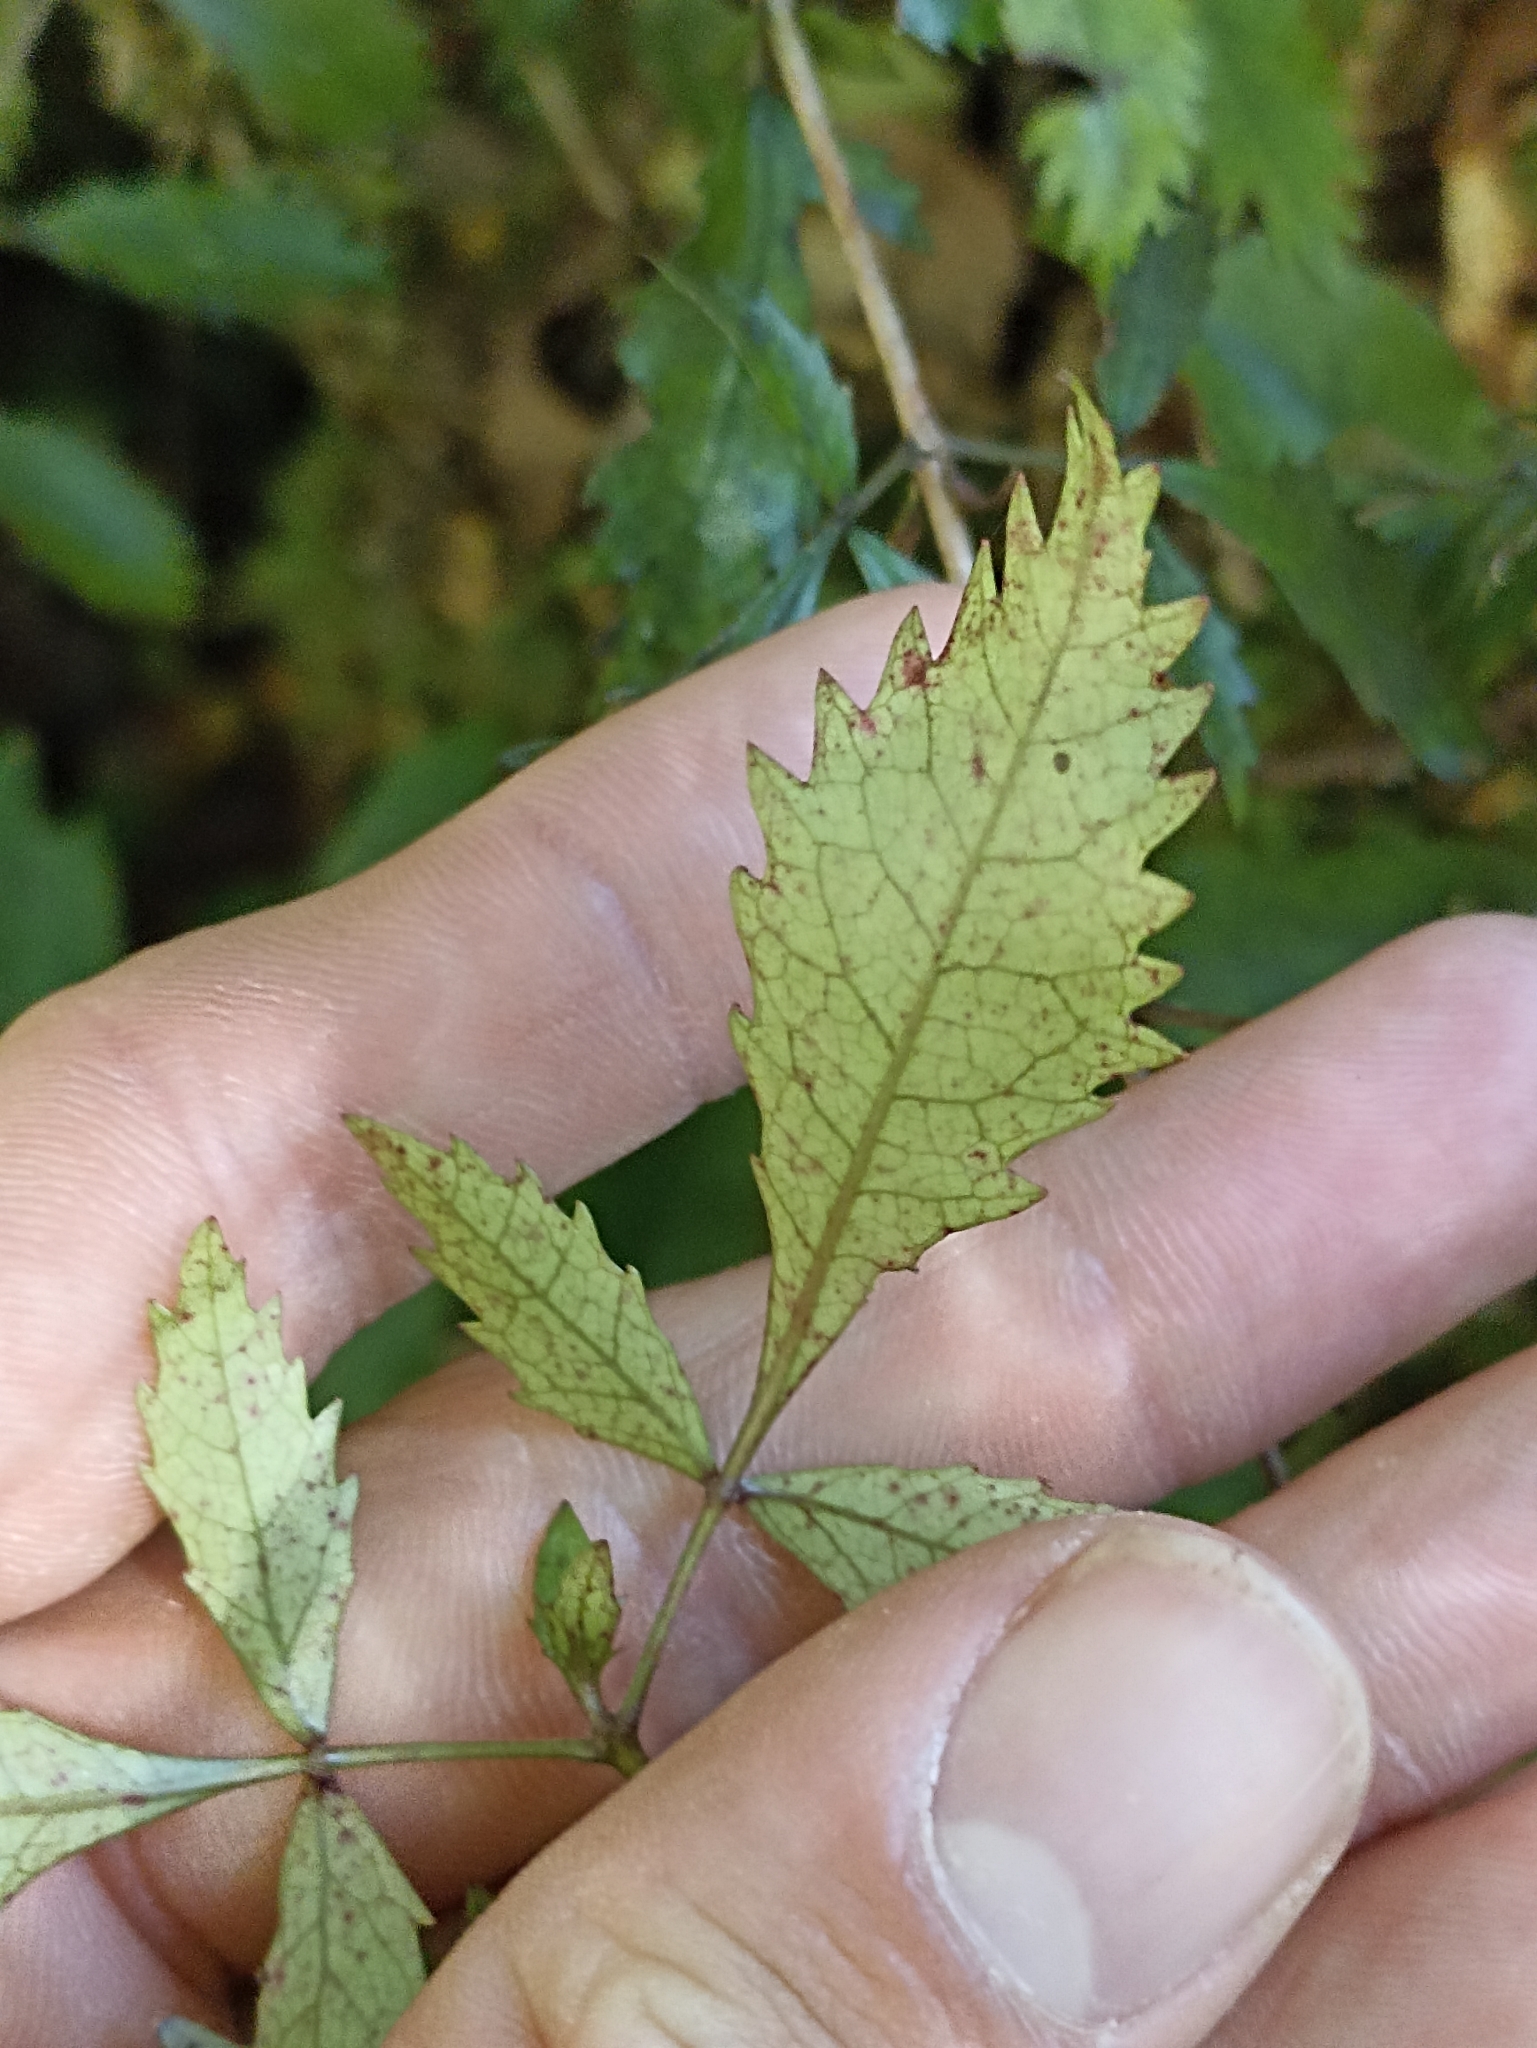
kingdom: Plantae
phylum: Tracheophyta
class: Magnoliopsida
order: Oxalidales
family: Cunoniaceae
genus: Pterophylla
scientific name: Pterophylla racemosa
